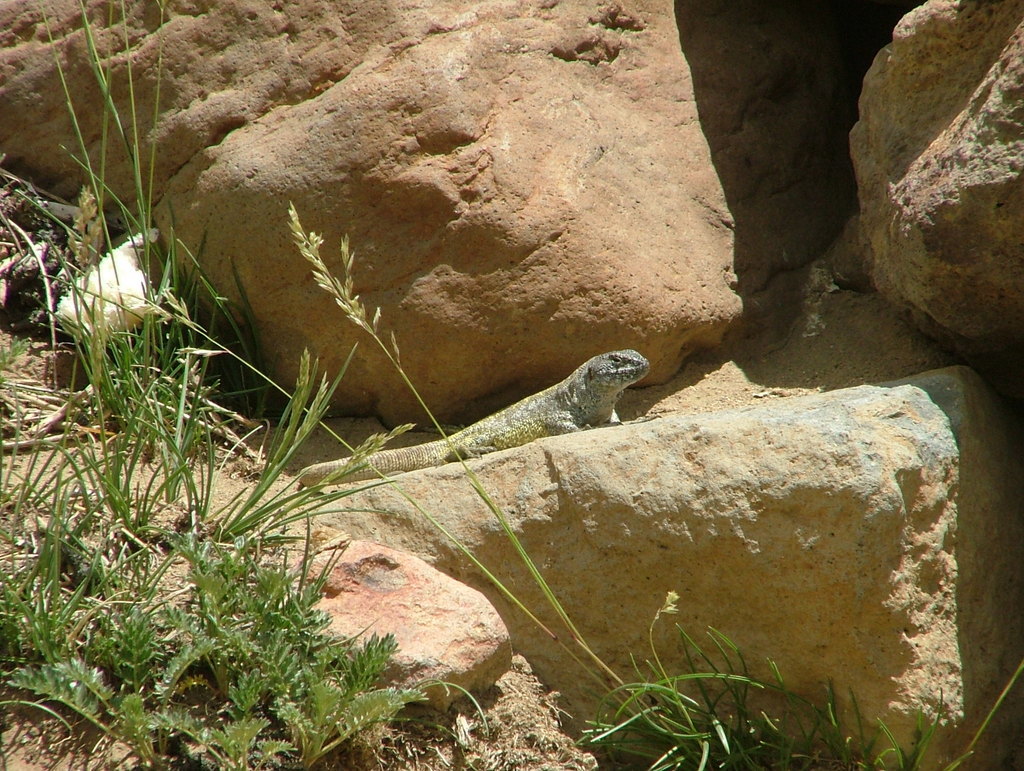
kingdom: Animalia
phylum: Chordata
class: Squamata
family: Liolaemidae
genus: Liolaemus
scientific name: Liolaemus flavipiceus
